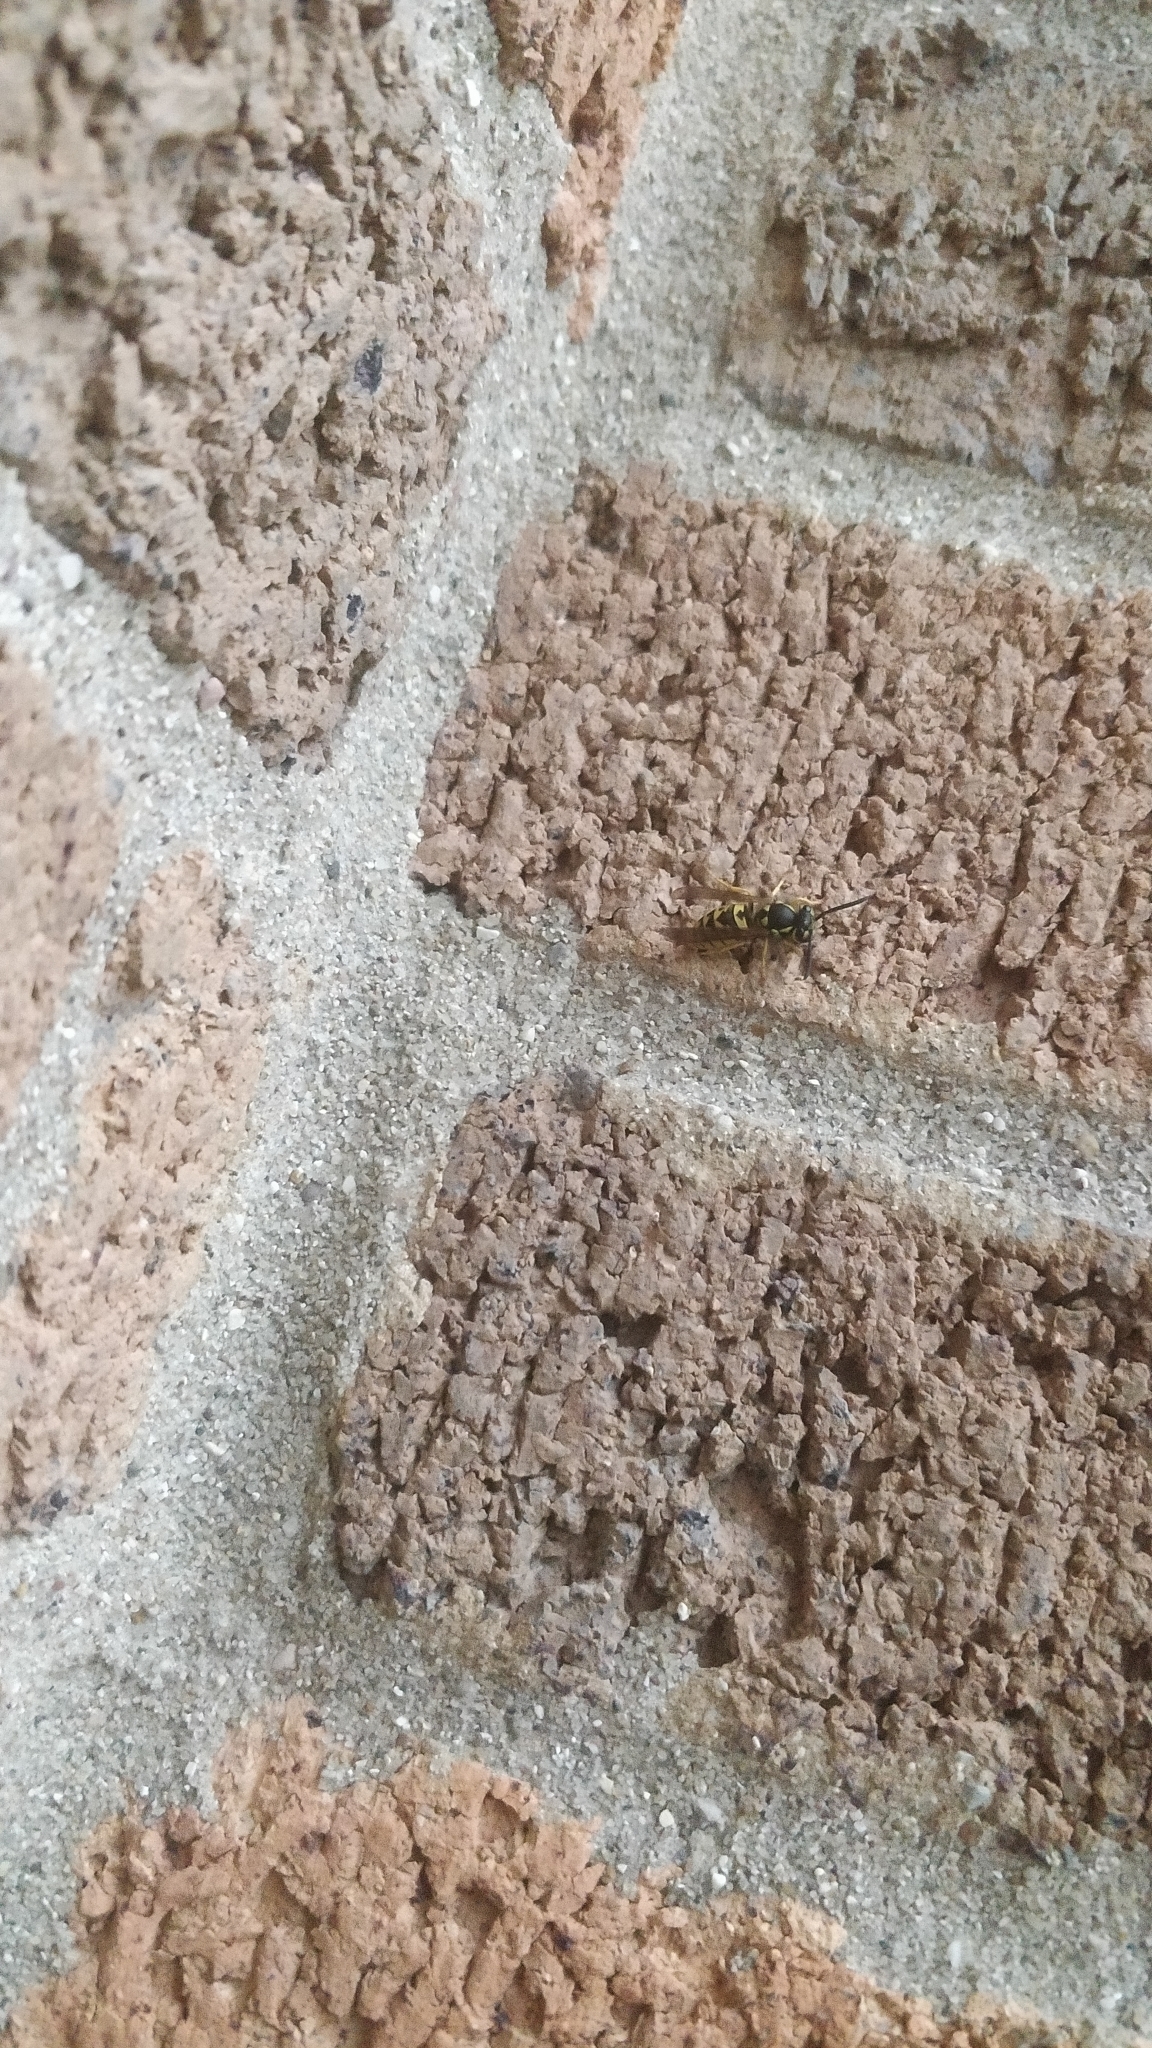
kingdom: Animalia
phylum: Arthropoda
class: Insecta
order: Hymenoptera
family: Vespidae
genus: Vespula
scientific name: Vespula germanica
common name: German wasp
